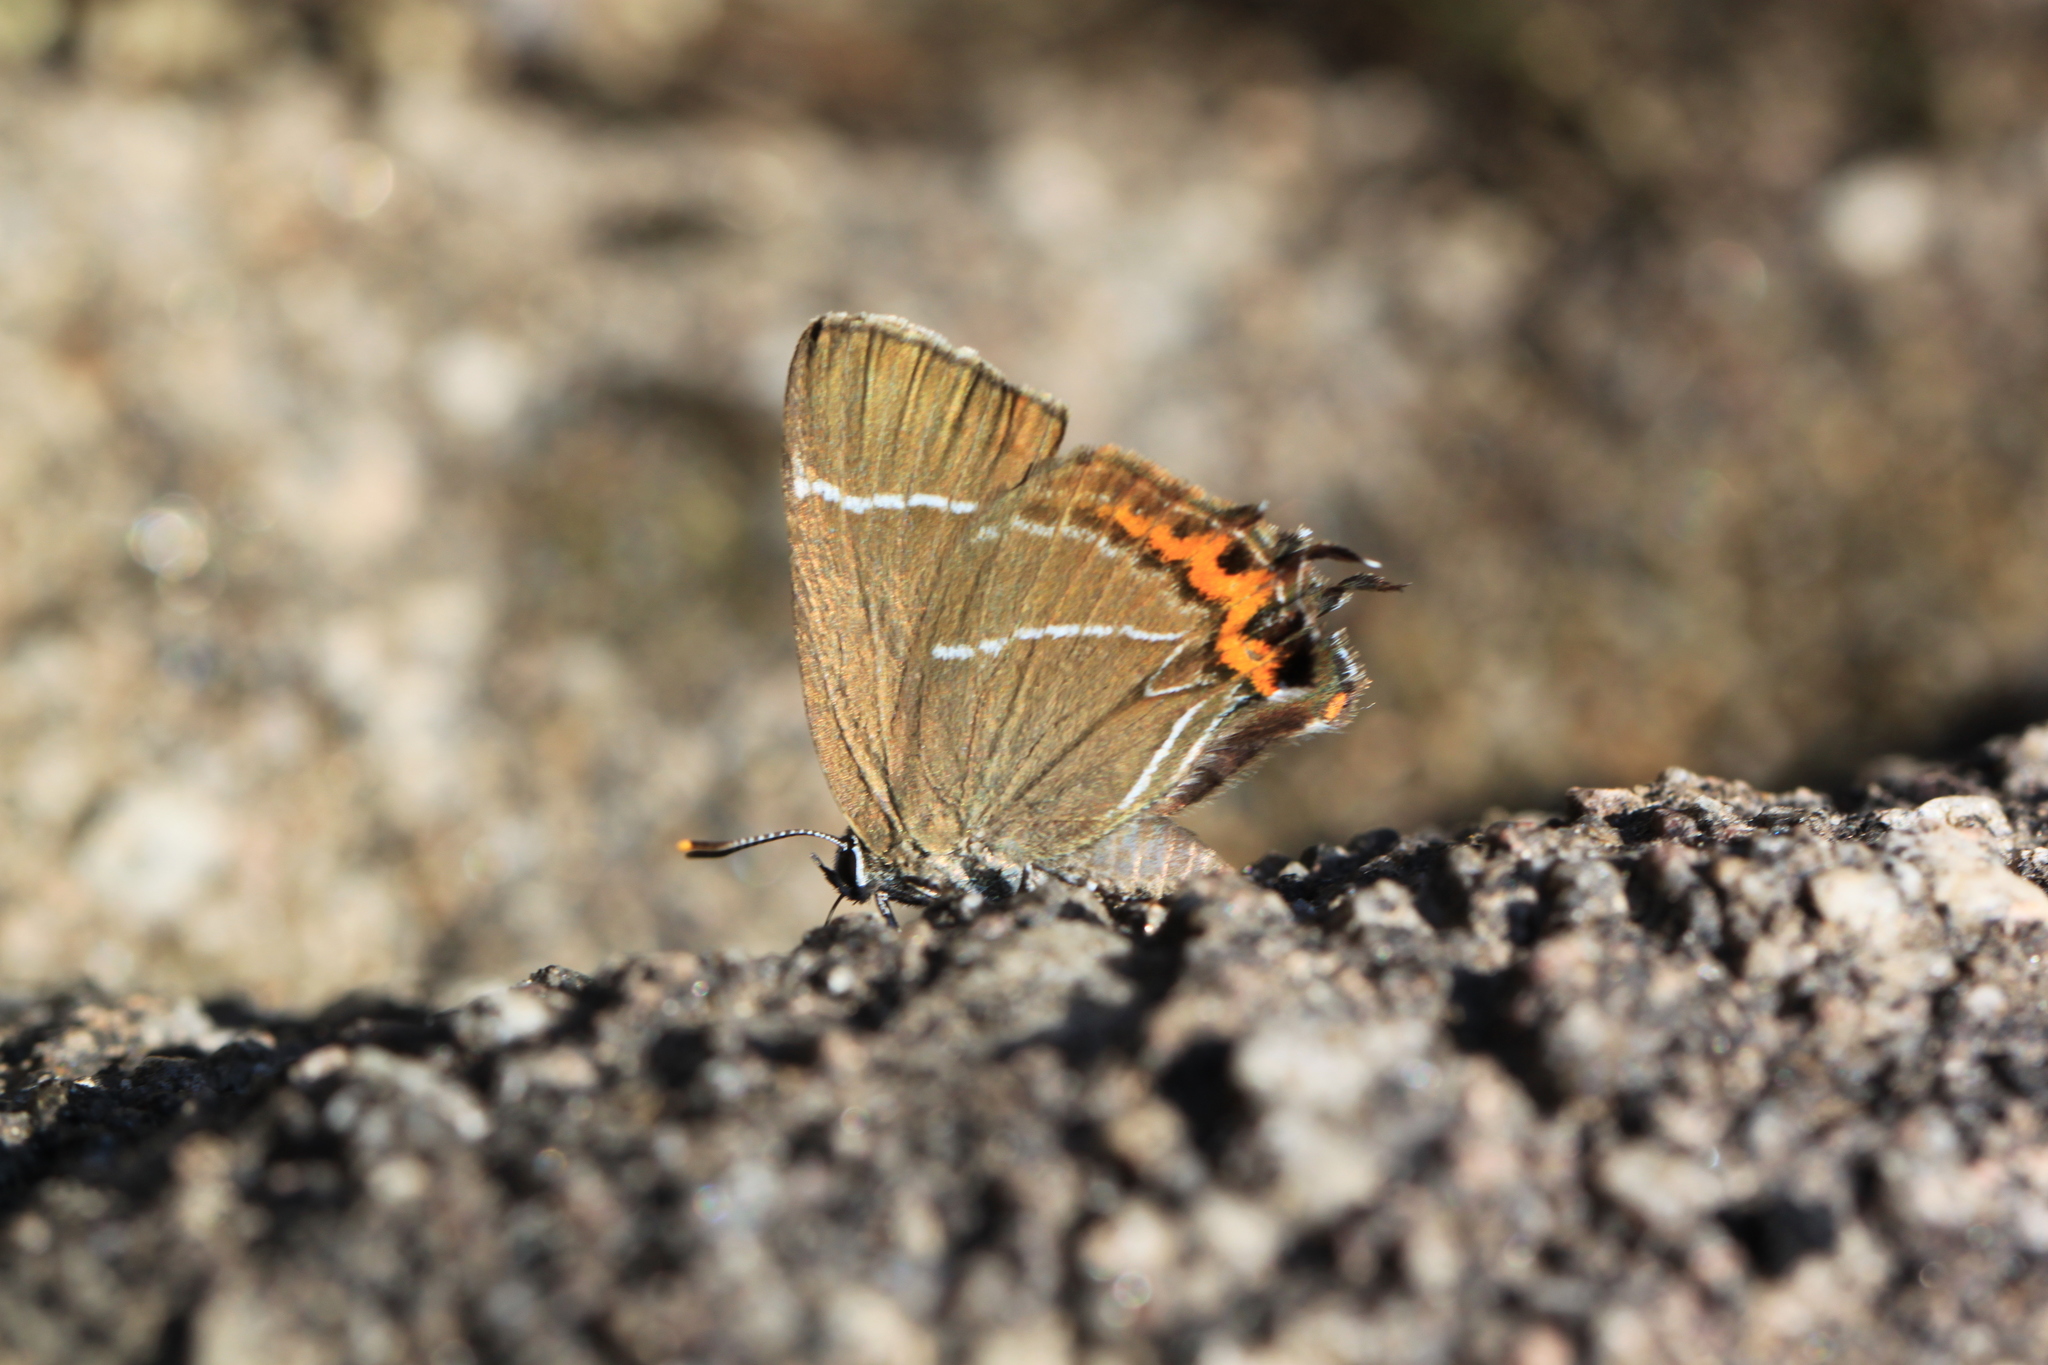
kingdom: Animalia
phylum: Arthropoda
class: Insecta
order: Lepidoptera
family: Lycaenidae
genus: Satyrium
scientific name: Satyrium w-album
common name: White-letter hairstreak
